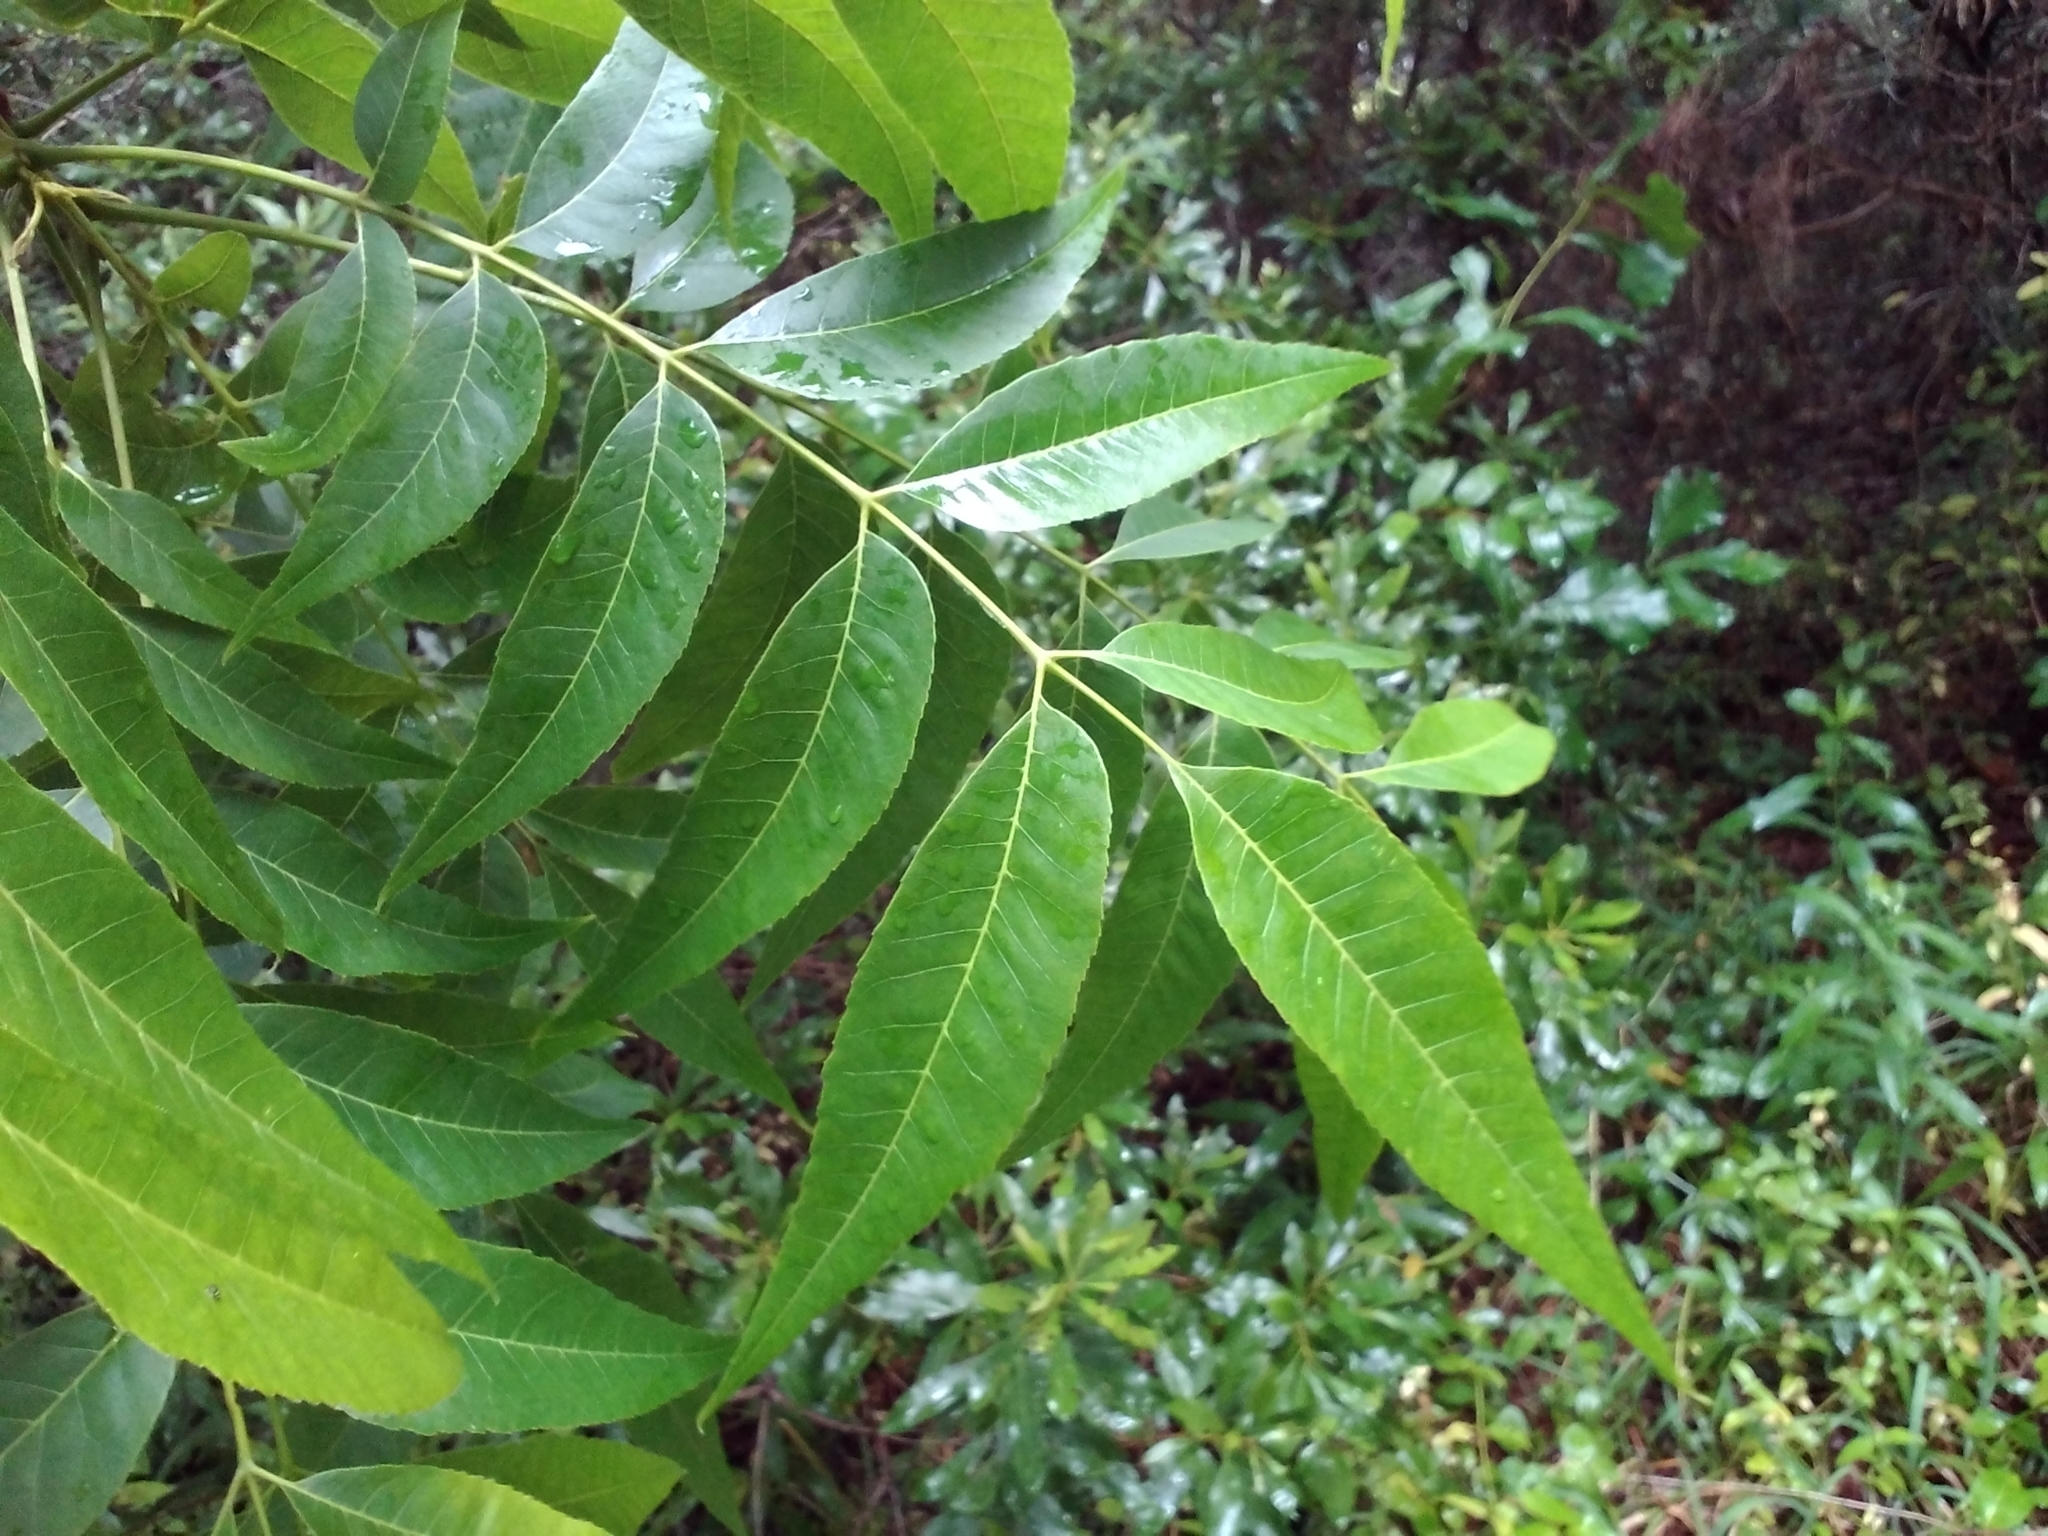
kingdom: Plantae
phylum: Tracheophyta
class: Magnoliopsida
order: Fagales
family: Juglandaceae
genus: Carya
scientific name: Carya illinoinensis
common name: Pecan
